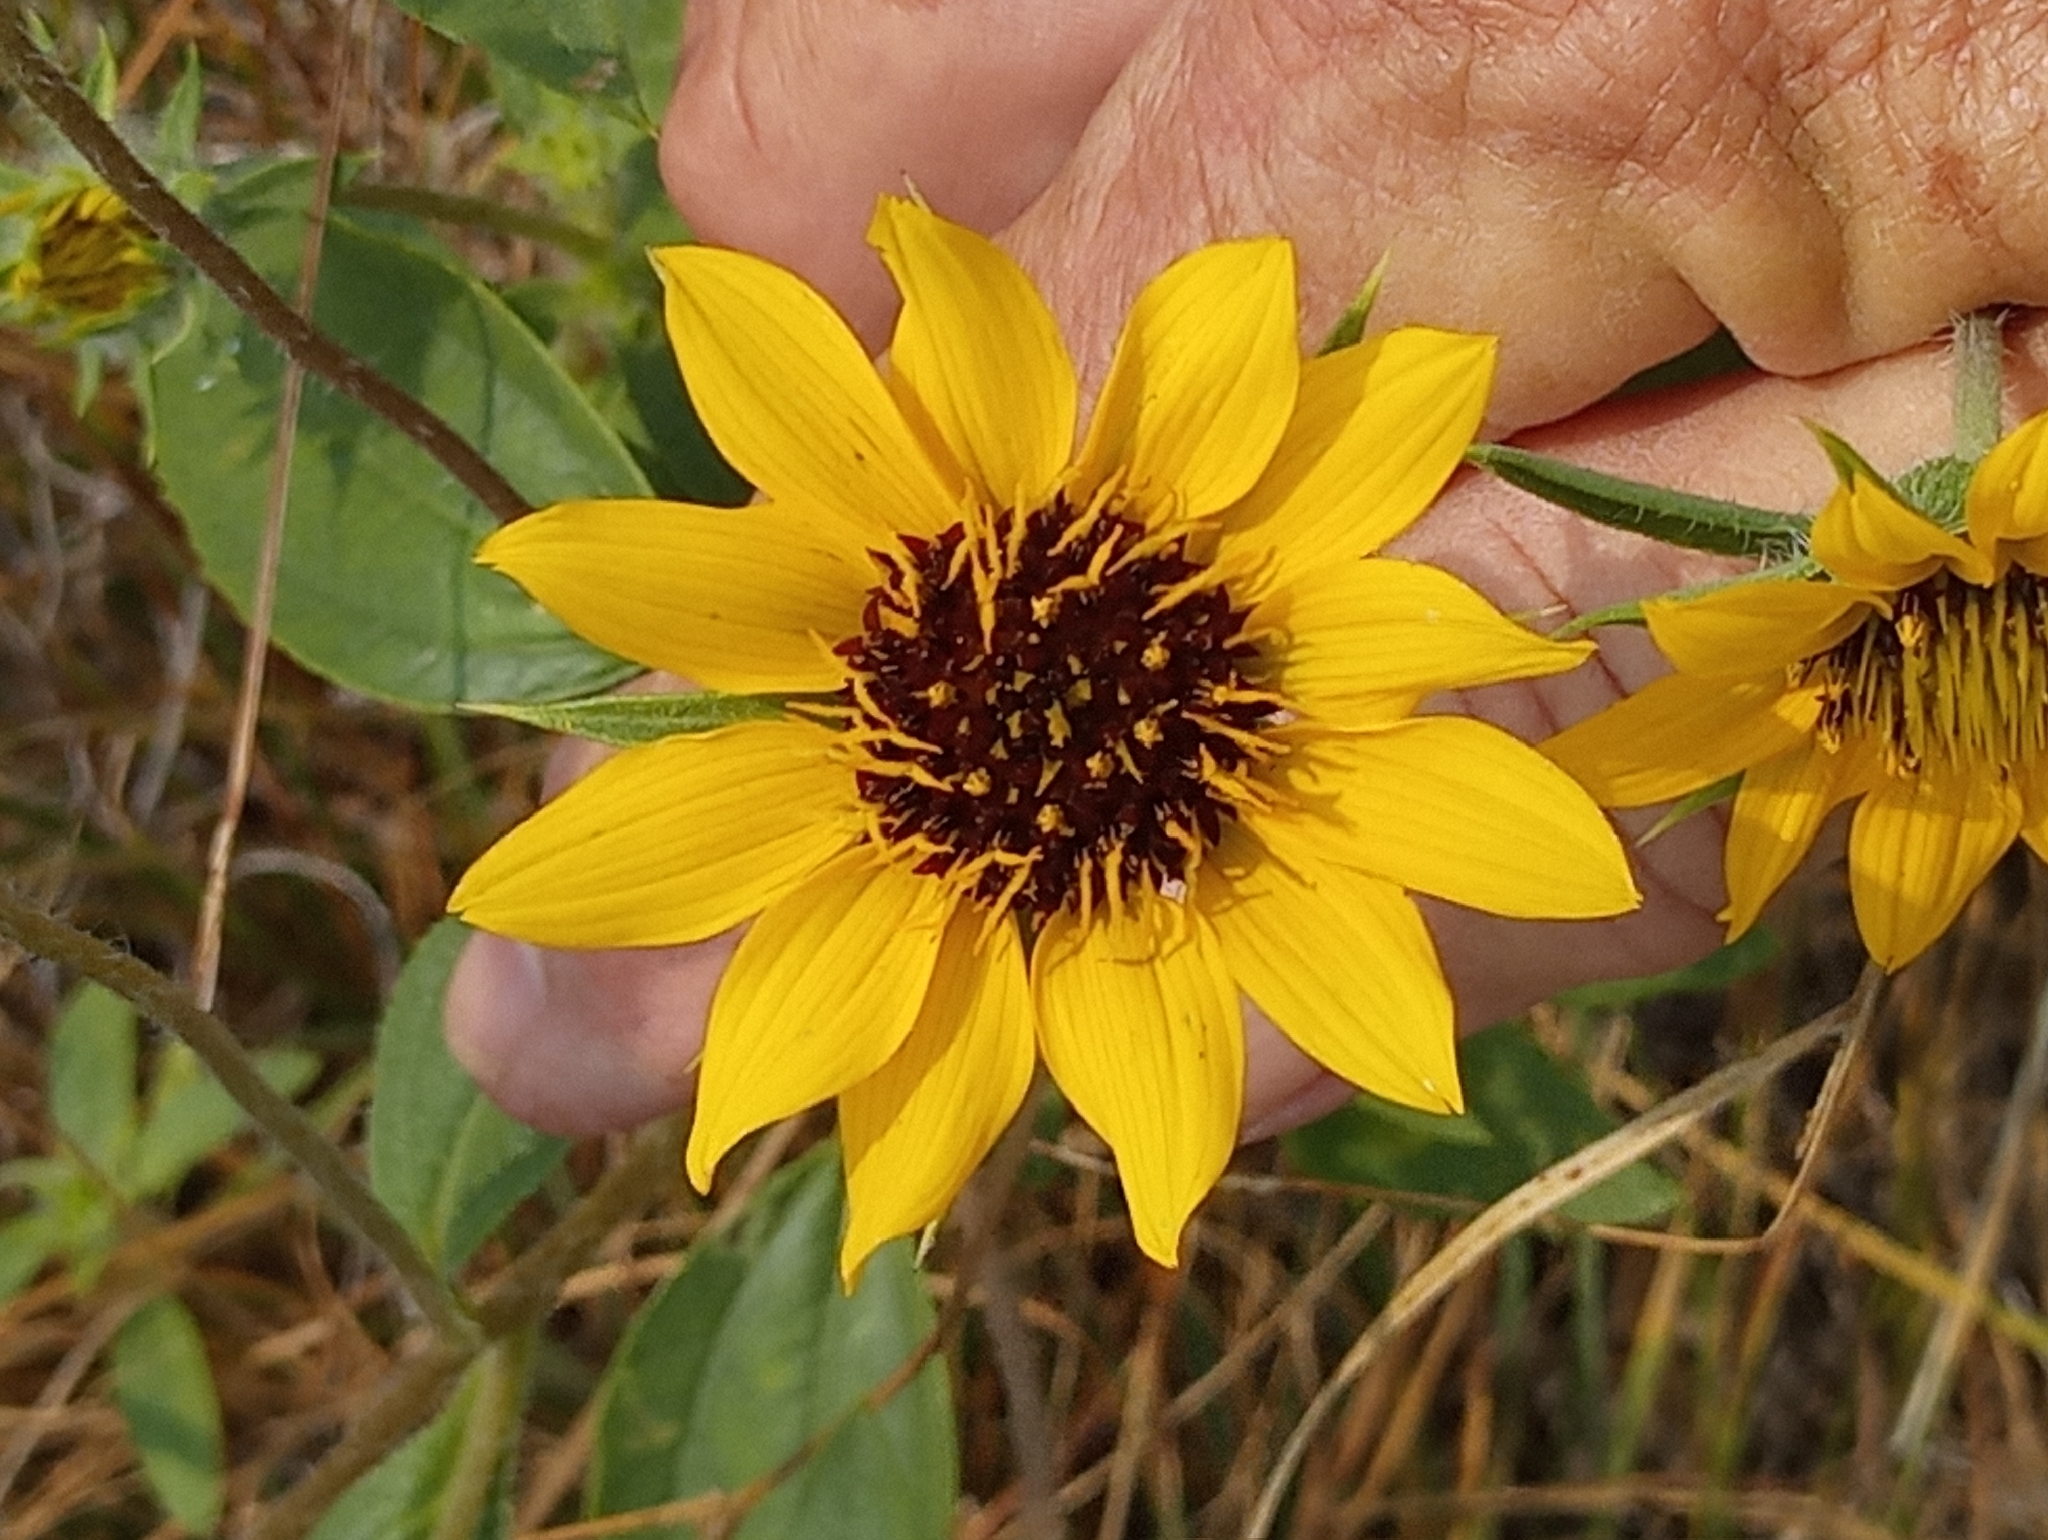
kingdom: Plantae
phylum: Tracheophyta
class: Magnoliopsida
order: Asterales
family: Asteraceae
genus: Helianthus
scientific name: Helianthus exilis
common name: Serpentine sunflower
